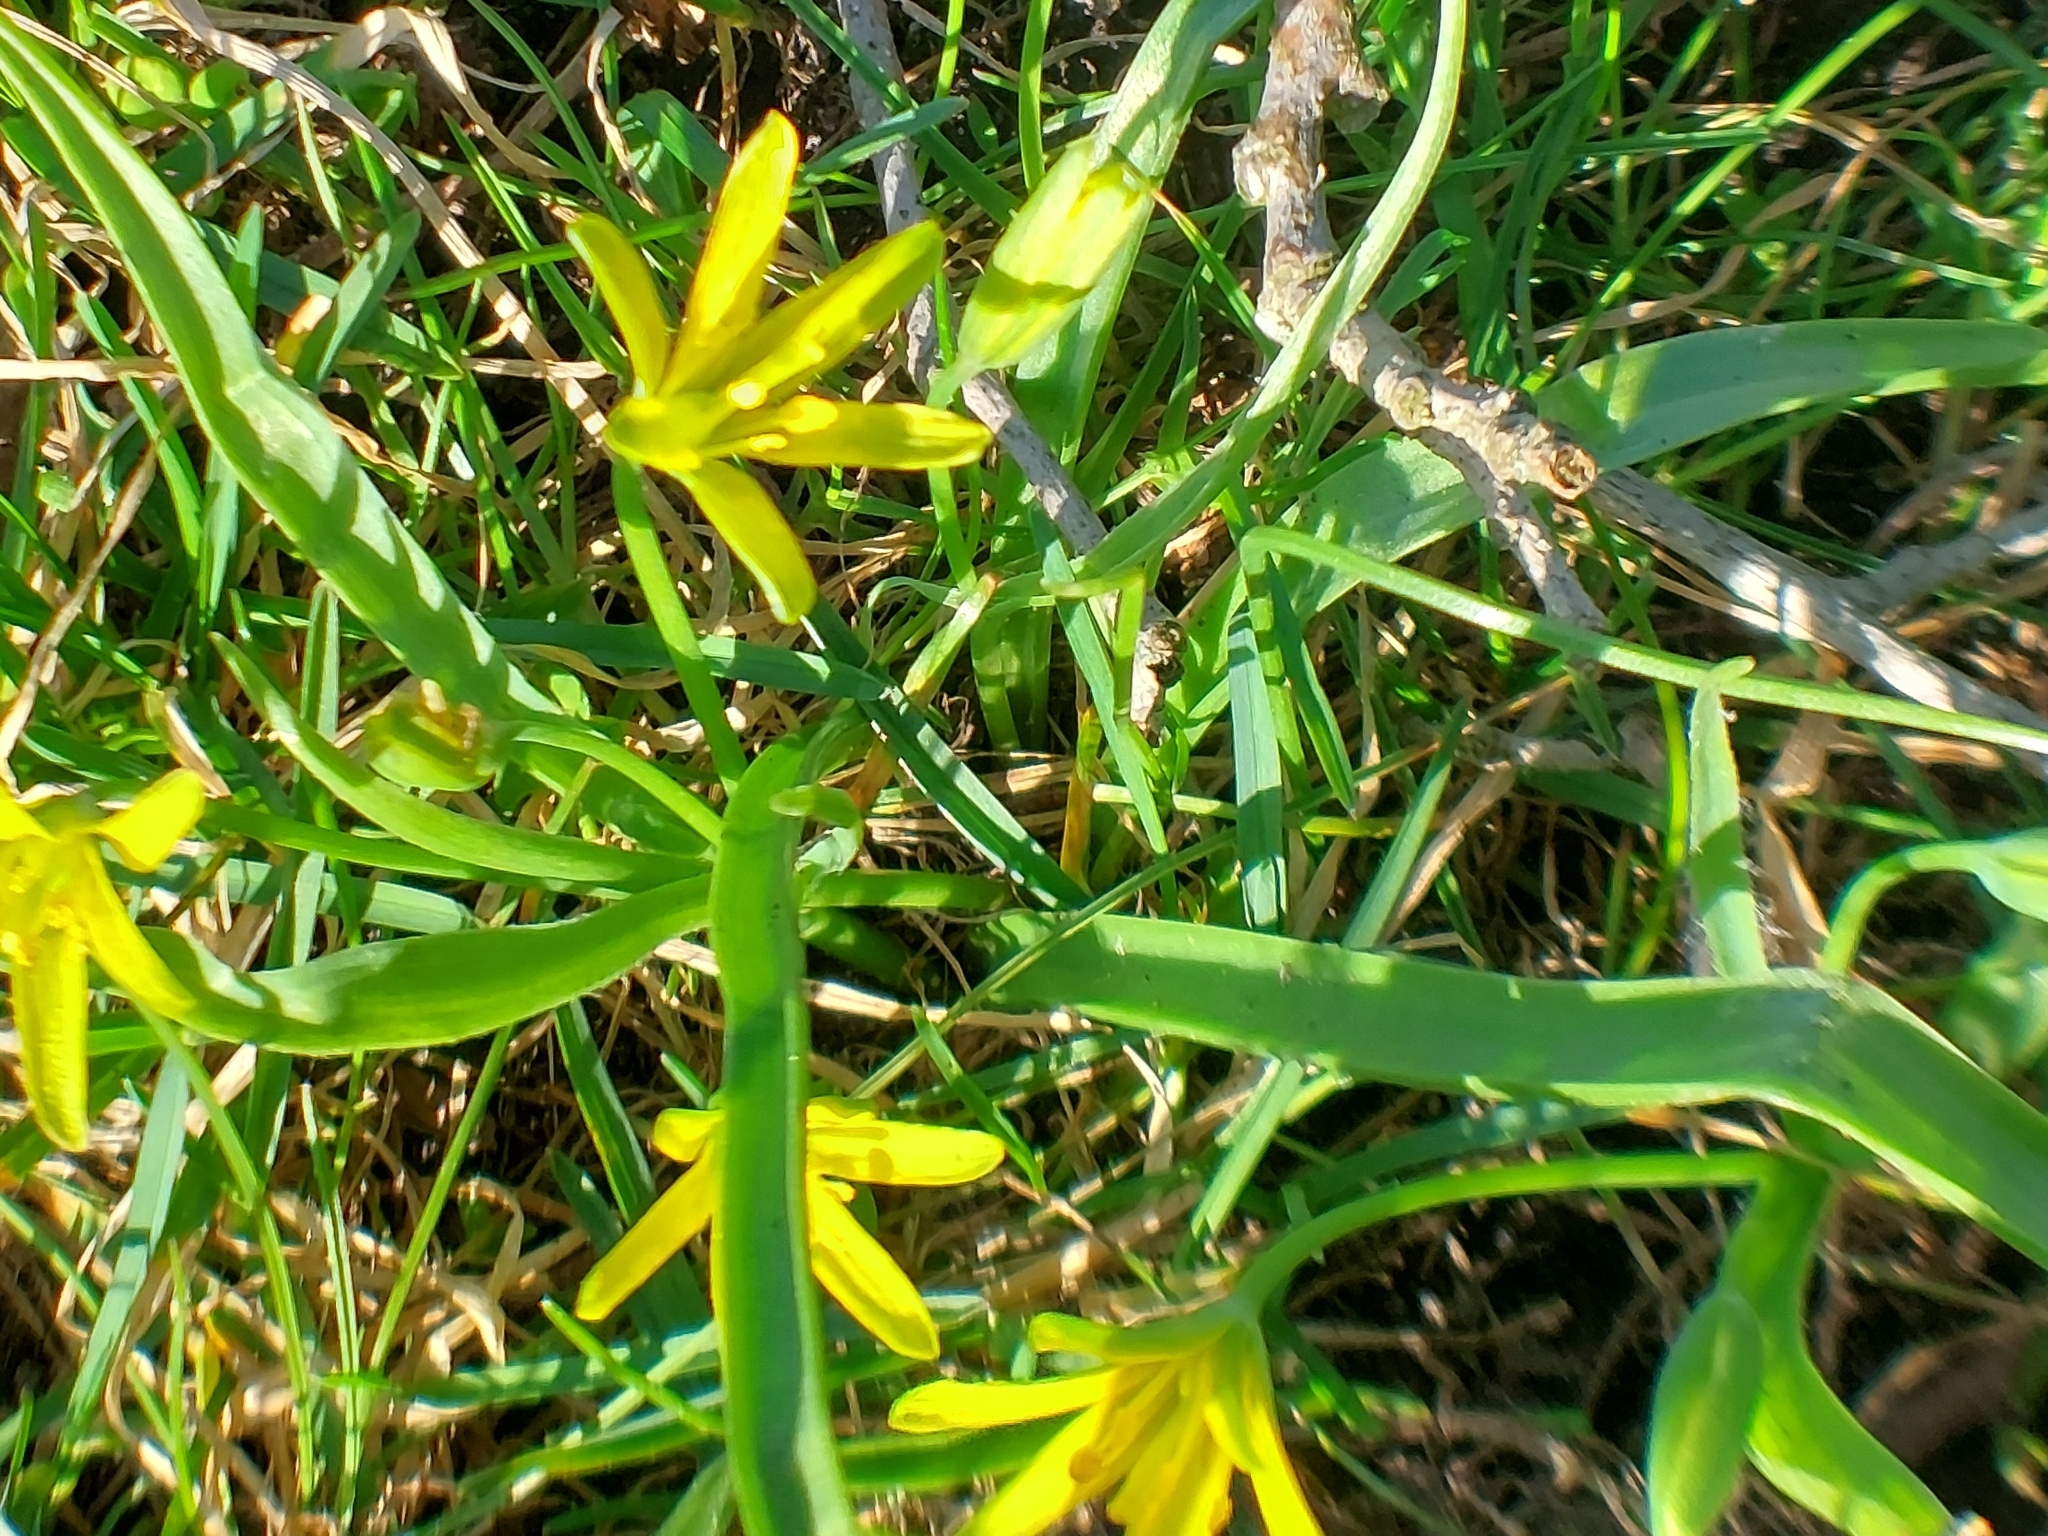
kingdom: Plantae
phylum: Tracheophyta
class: Liliopsida
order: Liliales
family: Liliaceae
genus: Gagea
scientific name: Gagea lutea
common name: Yellow star-of-bethlehem
